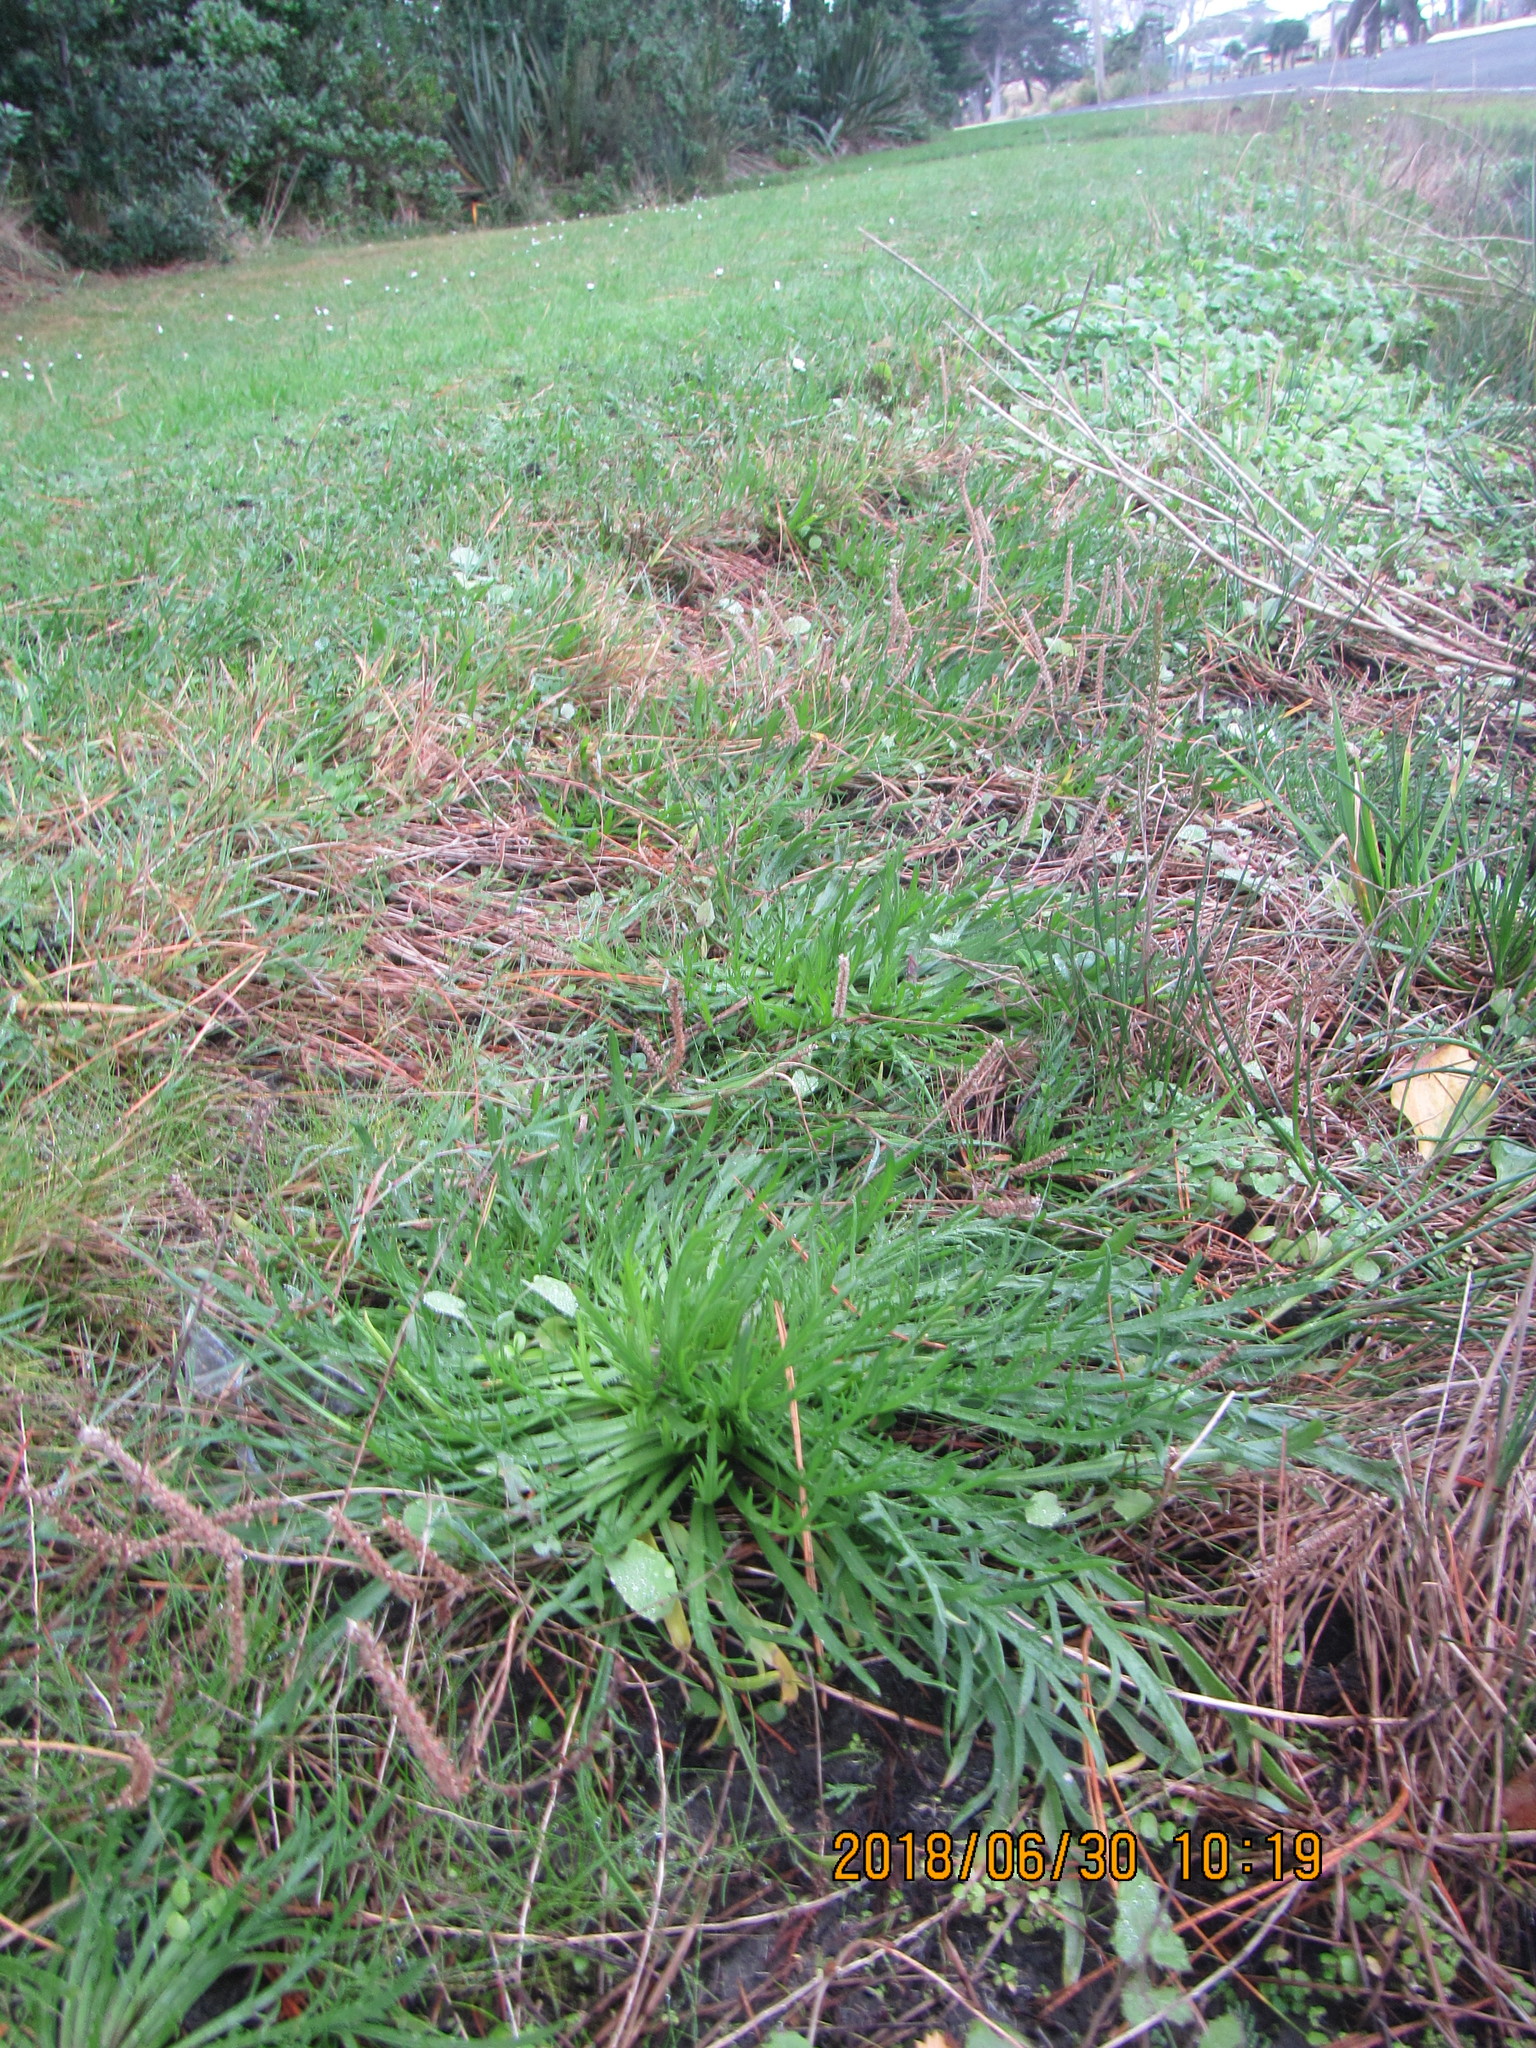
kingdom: Plantae
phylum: Tracheophyta
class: Magnoliopsida
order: Lamiales
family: Plantaginaceae
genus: Plantago
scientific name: Plantago coronopus
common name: Buck's-horn plantain
